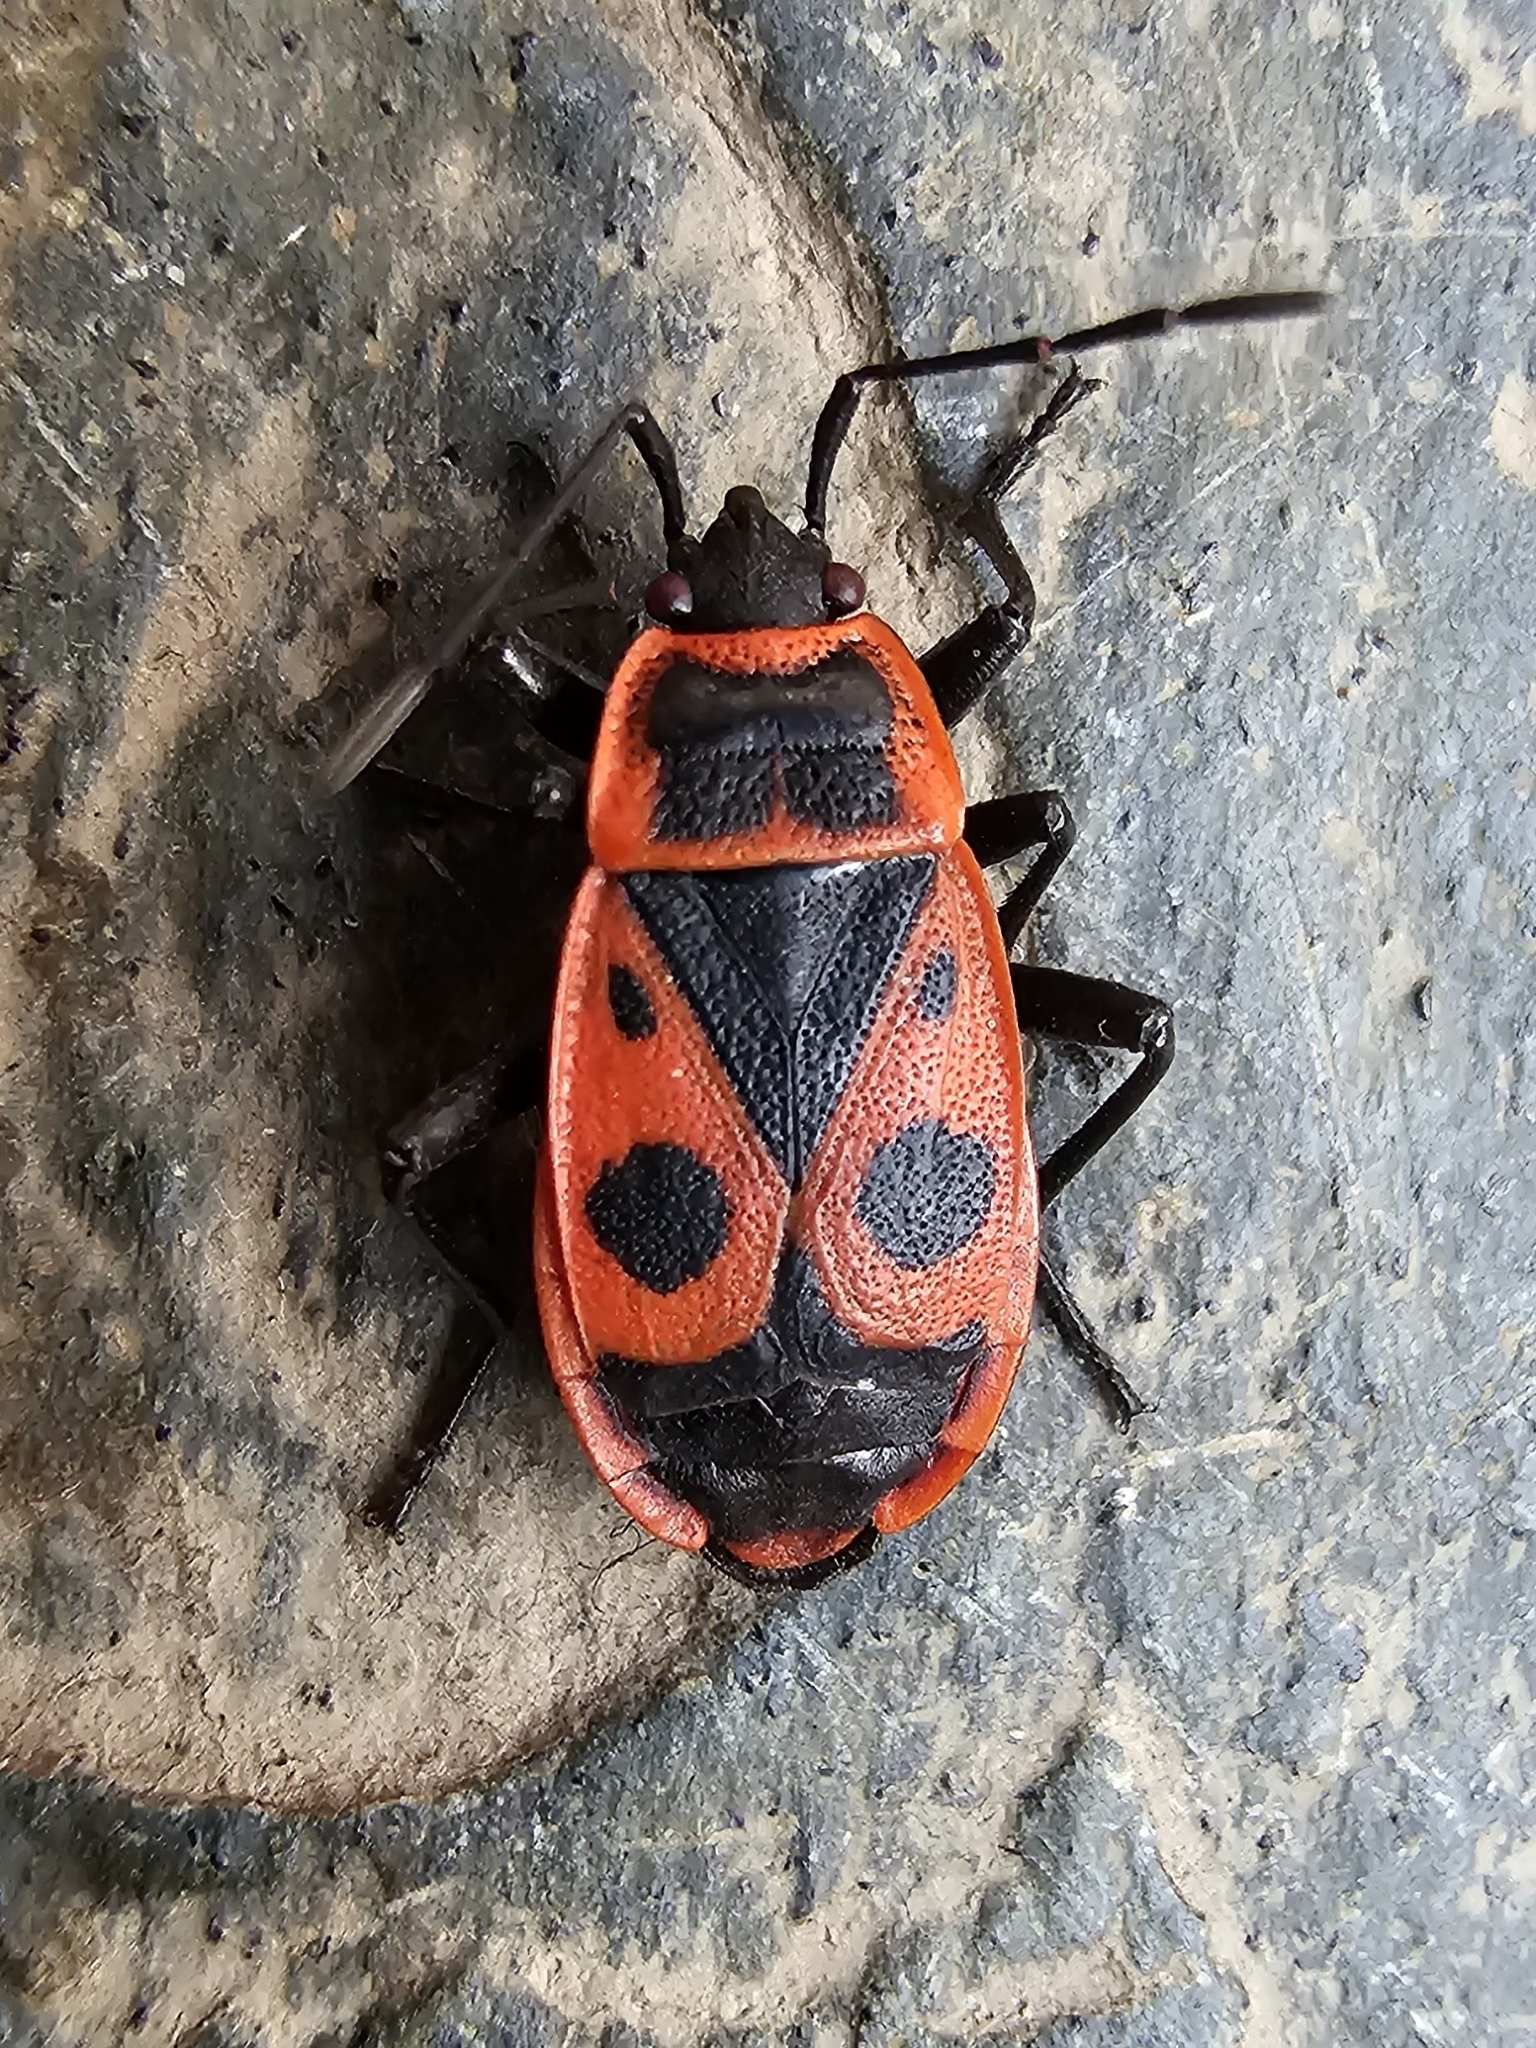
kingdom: Animalia
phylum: Arthropoda
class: Insecta
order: Hemiptera
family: Pyrrhocoridae
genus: Pyrrhocoris
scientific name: Pyrrhocoris apterus
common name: Firebug
